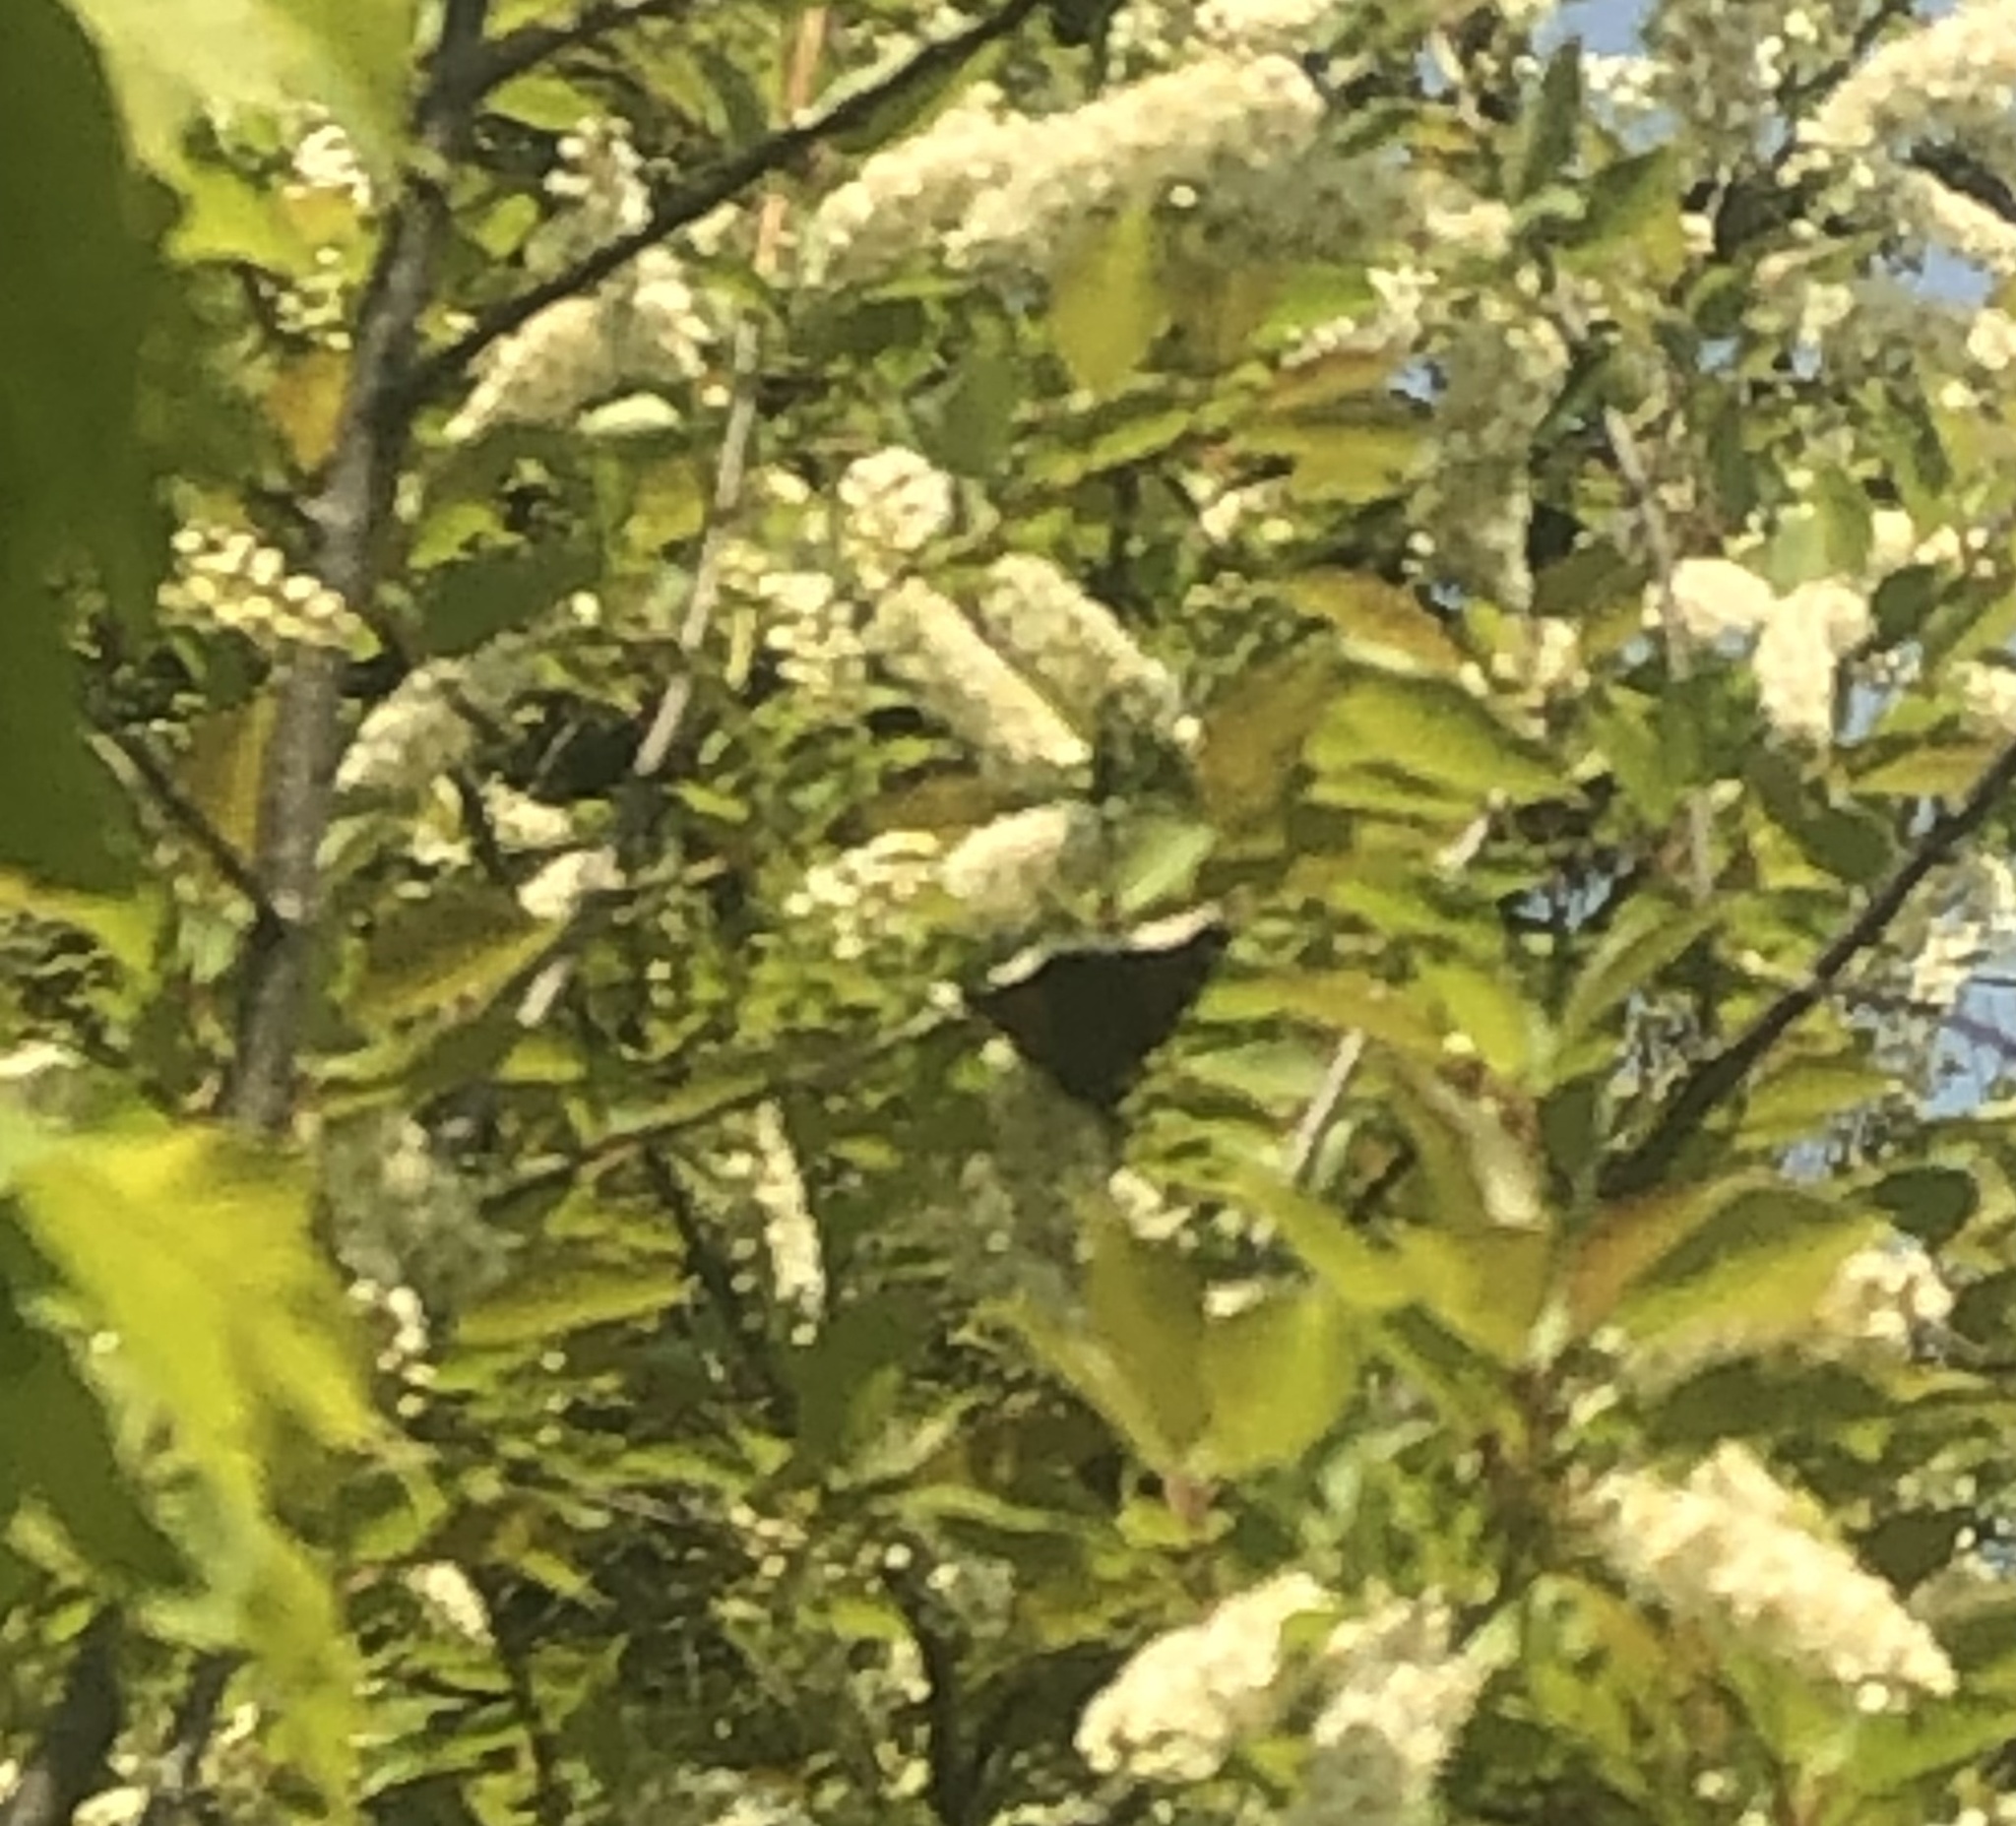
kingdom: Animalia
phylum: Arthropoda
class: Insecta
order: Lepidoptera
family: Nymphalidae
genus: Nymphalis
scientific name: Nymphalis antiopa
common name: Camberwell beauty
